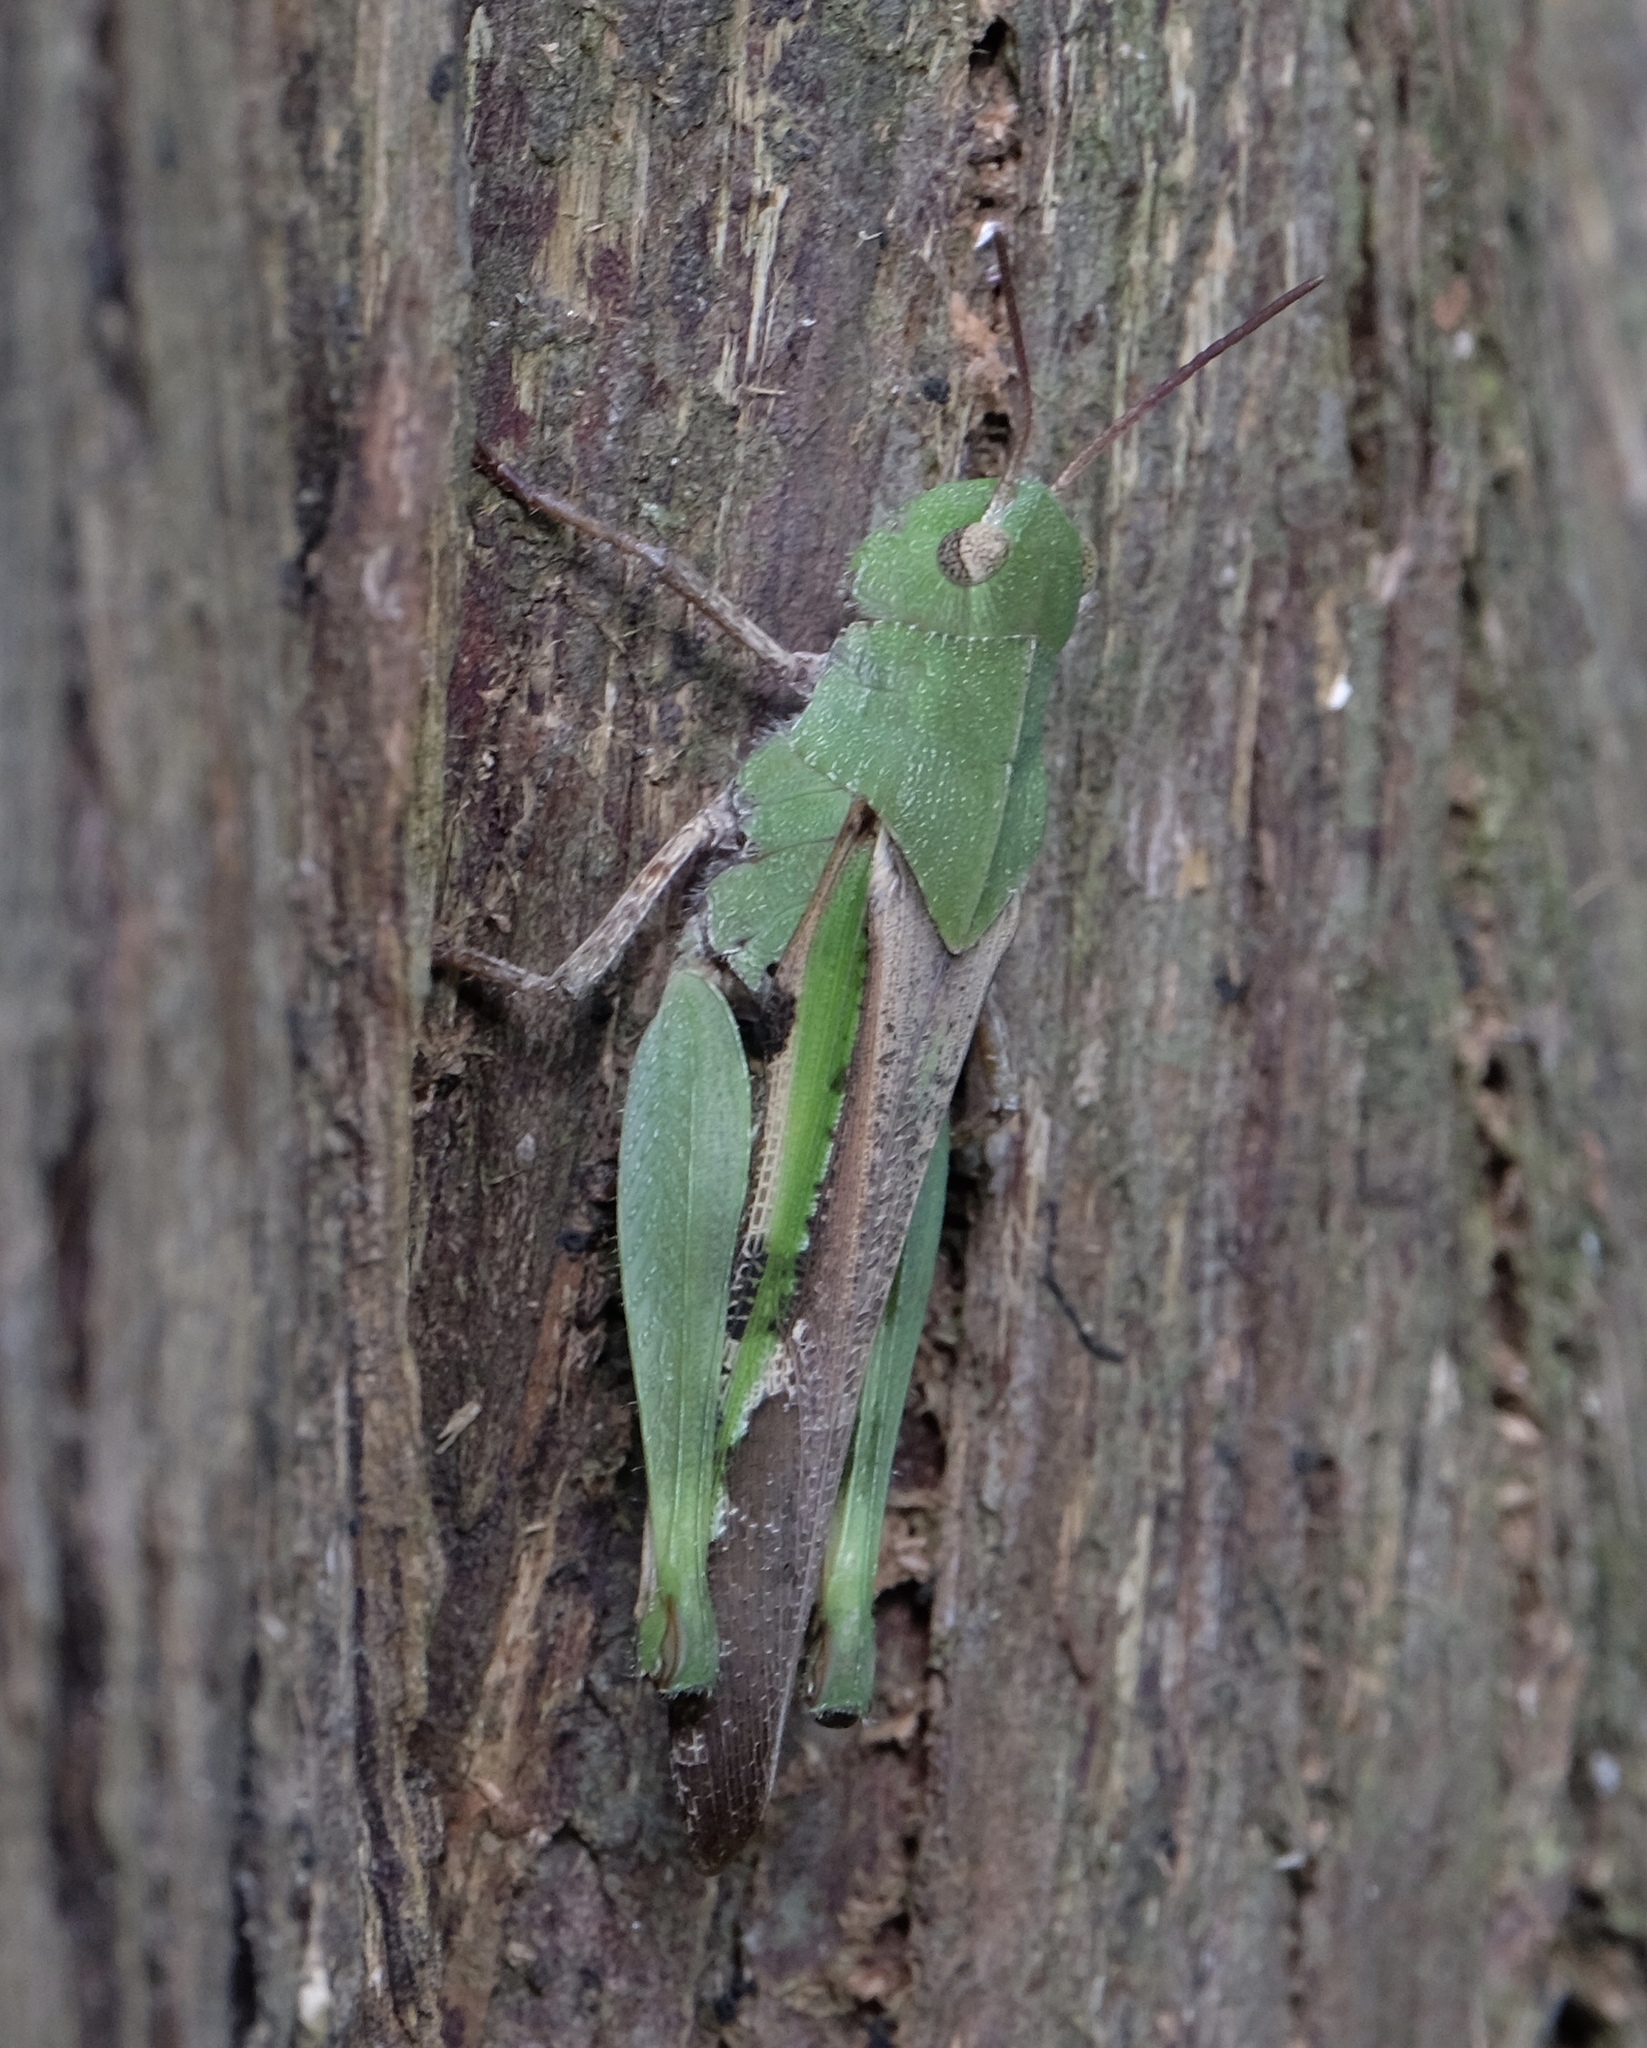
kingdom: Animalia
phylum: Arthropoda
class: Insecta
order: Orthoptera
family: Acrididae
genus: Chortophaga
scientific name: Chortophaga viridifasciata
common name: Green-striped grasshopper
